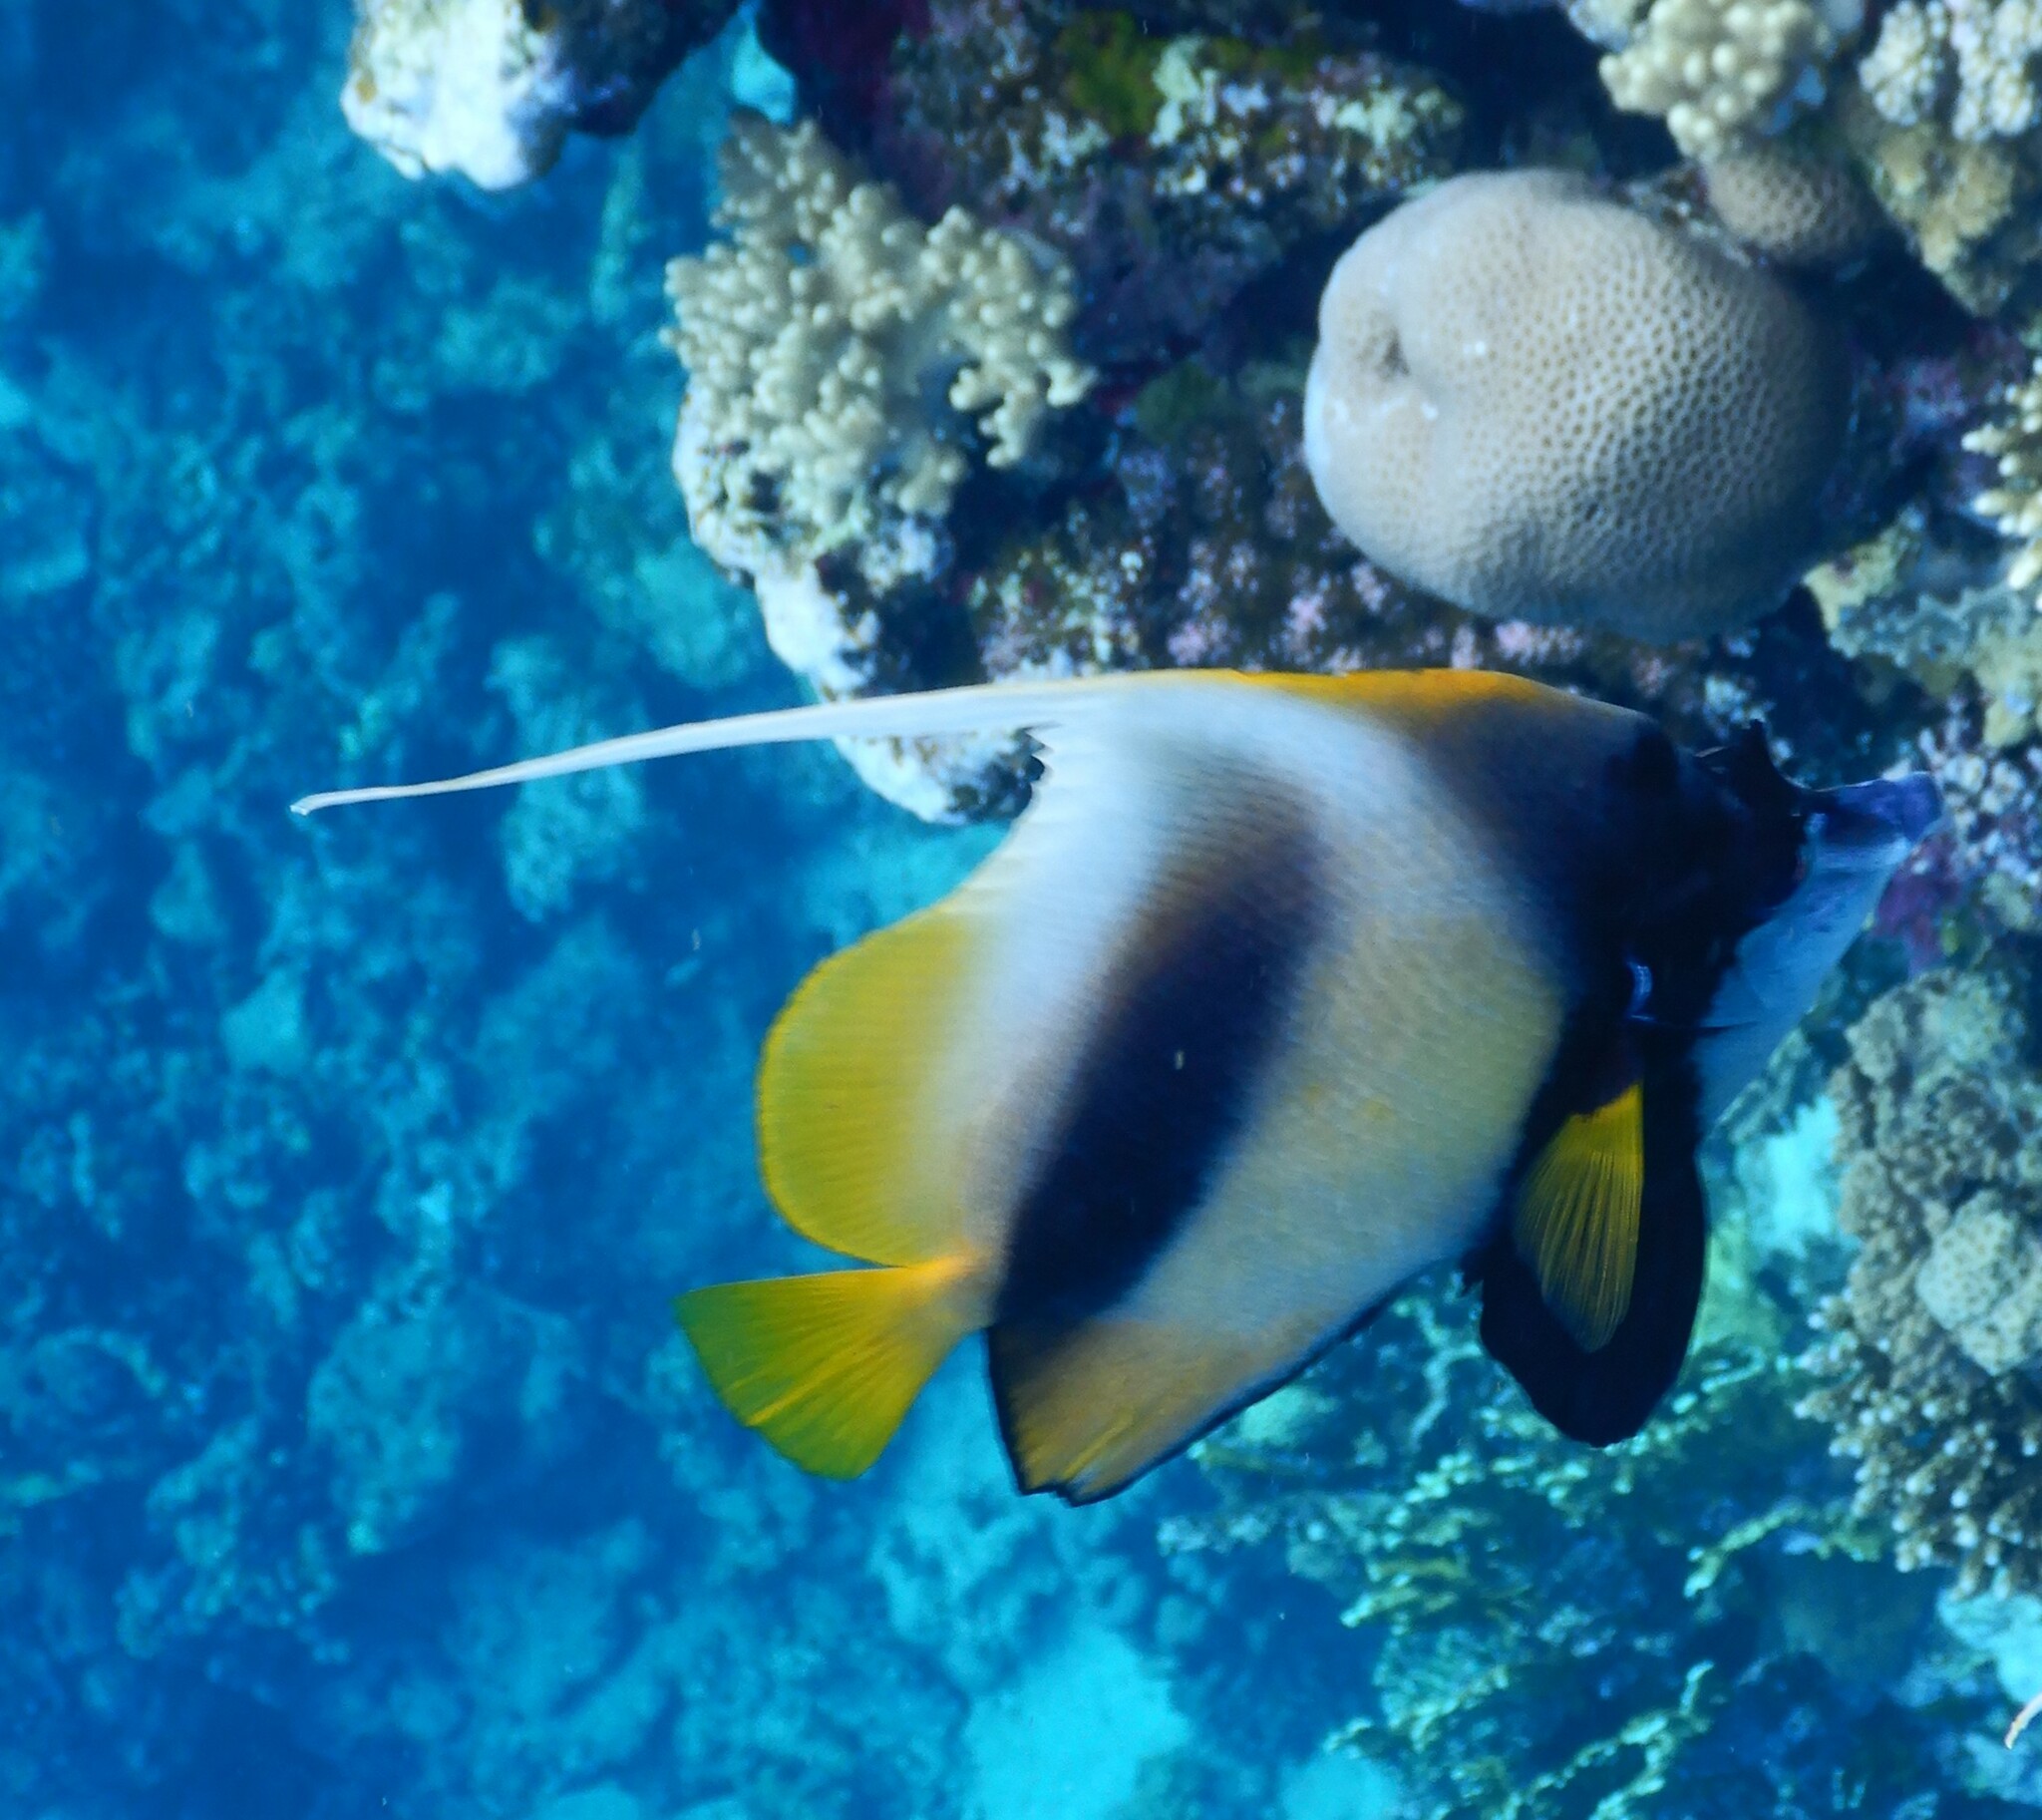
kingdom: Animalia
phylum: Chordata
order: Perciformes
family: Chaetodontidae
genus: Heniochus
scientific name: Heniochus intermedius
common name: Red sea bannerfish
